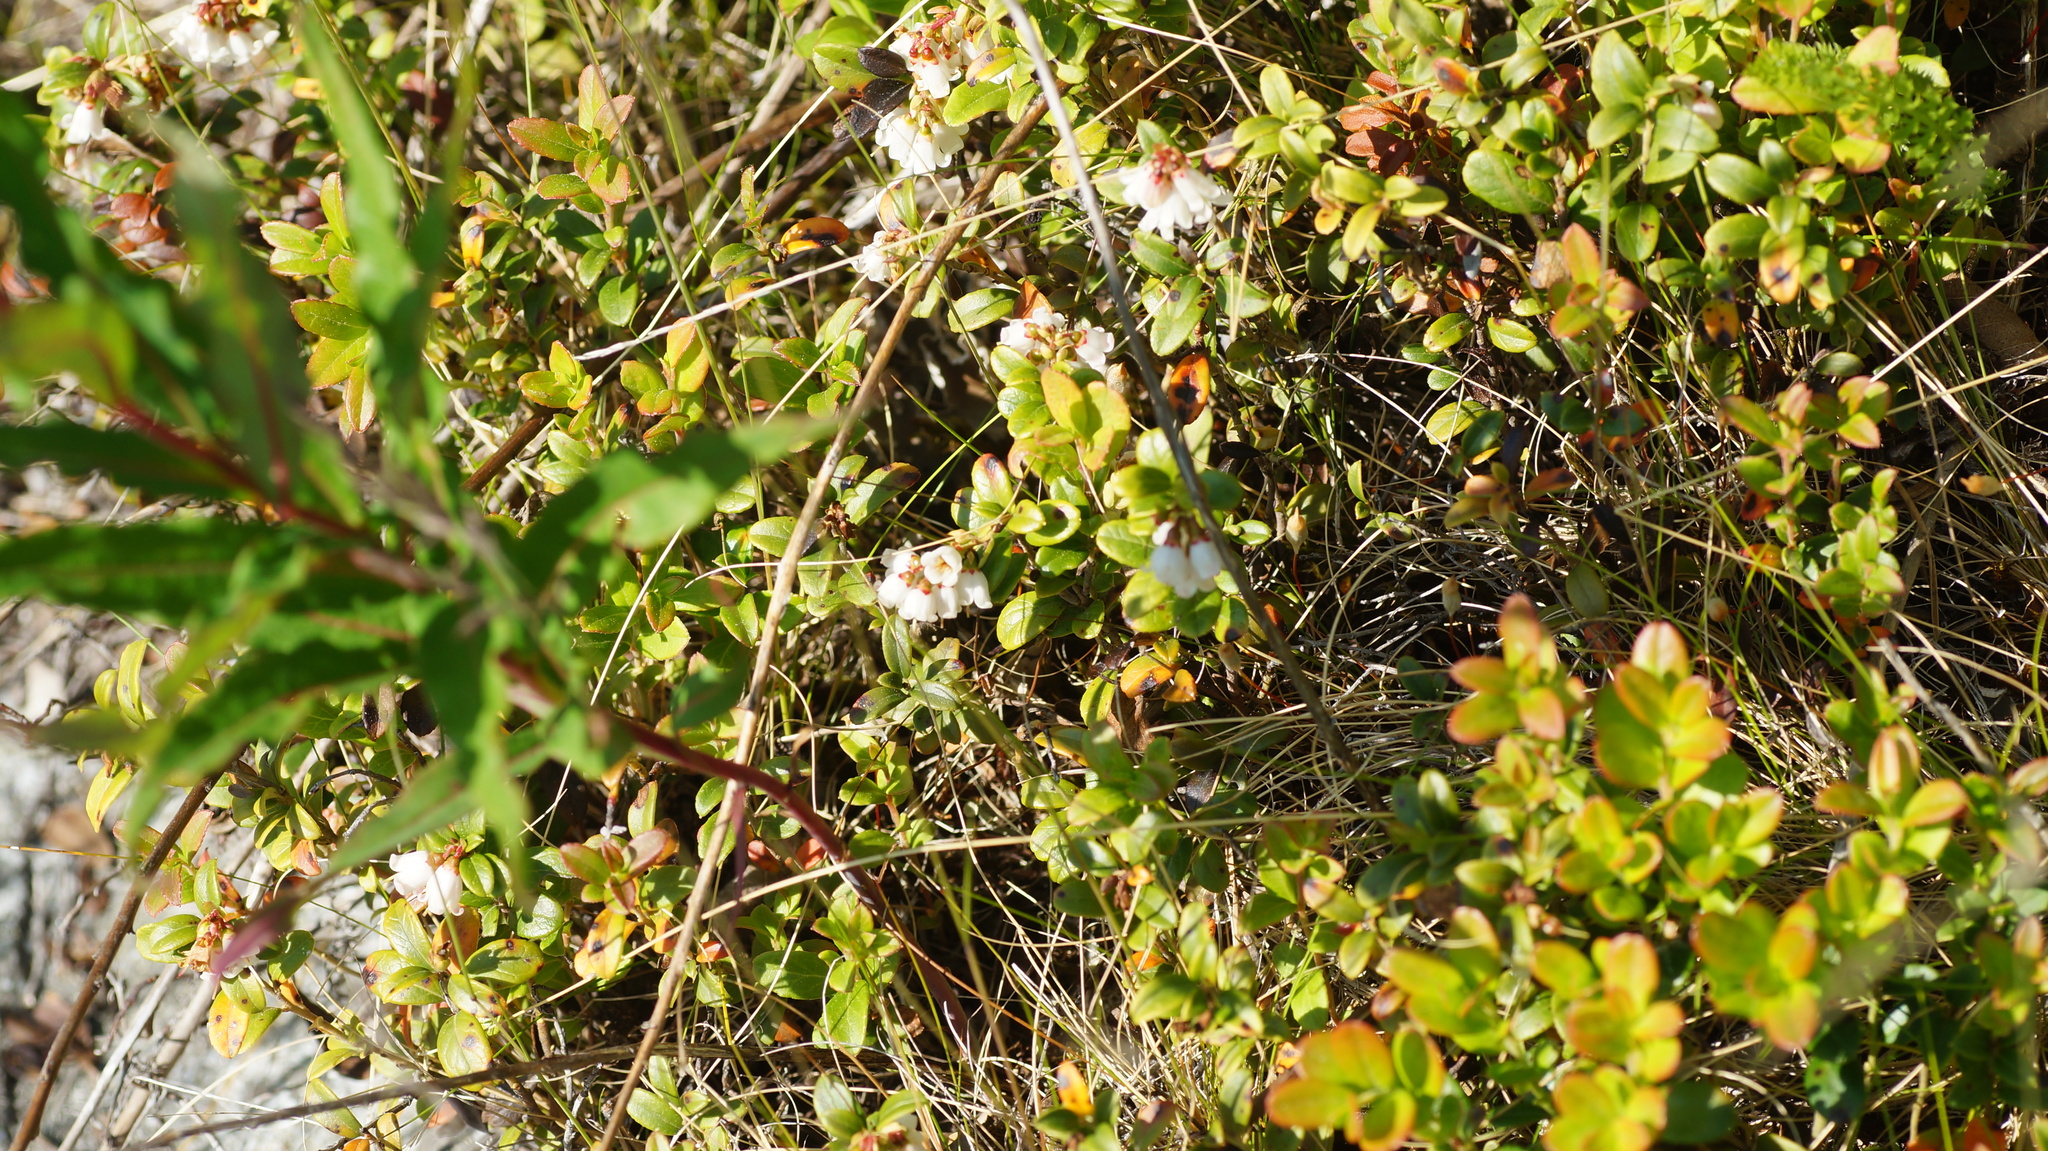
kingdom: Plantae
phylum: Tracheophyta
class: Magnoliopsida
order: Ericales
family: Ericaceae
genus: Vaccinium
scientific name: Vaccinium vitis-idaea
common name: Cowberry
